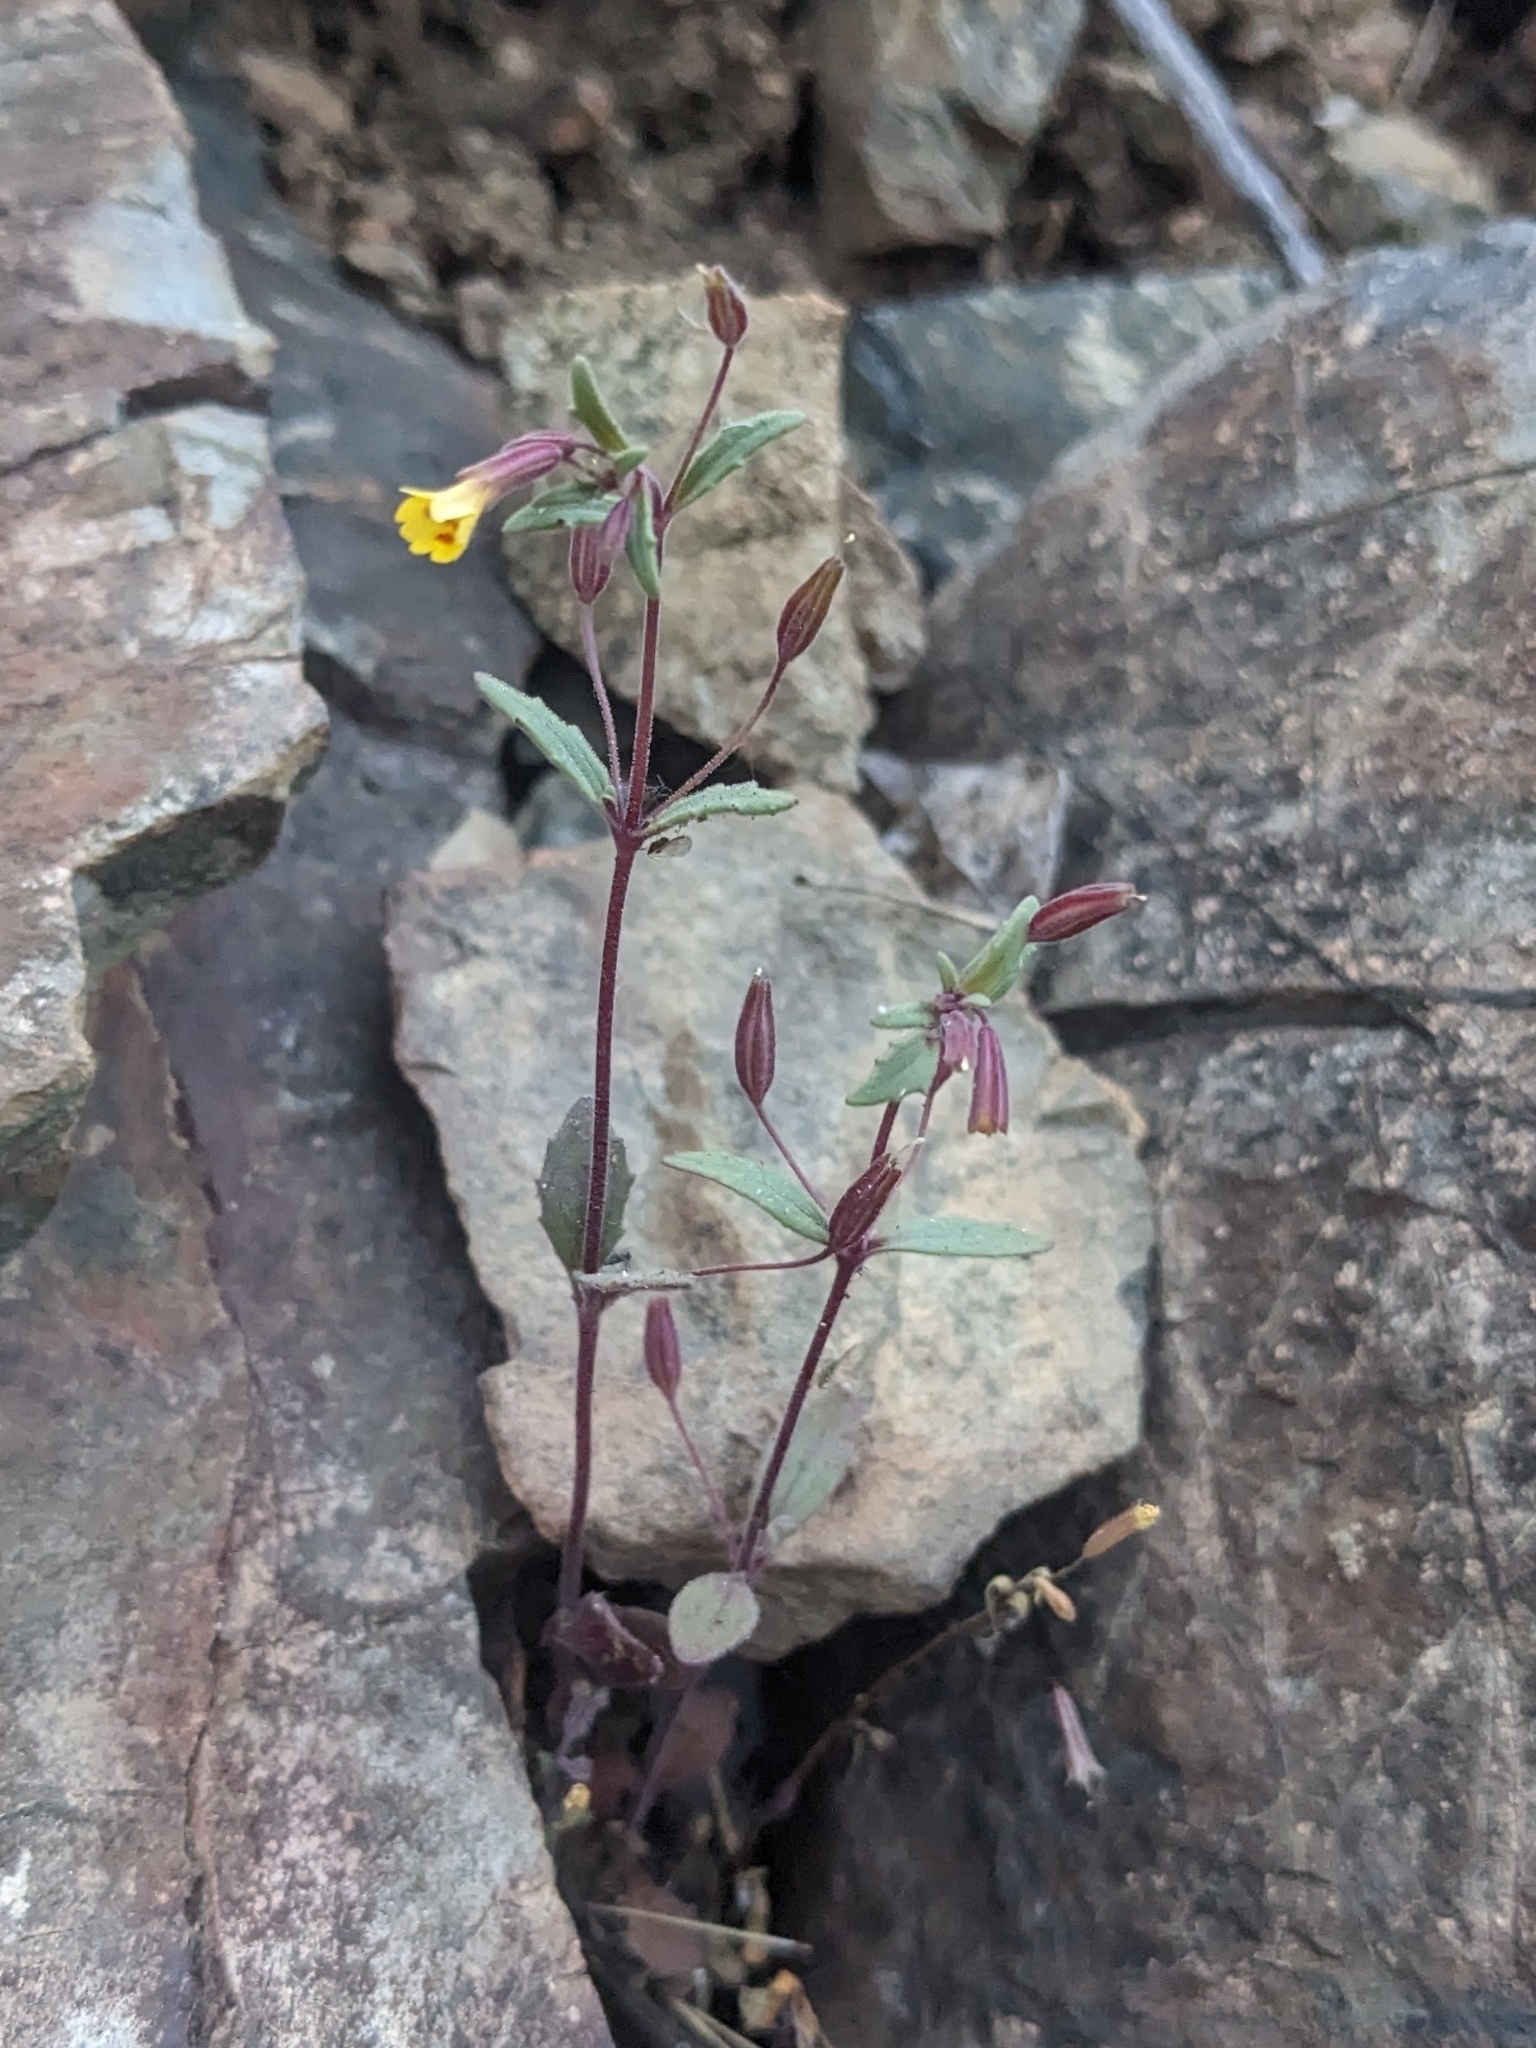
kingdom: Plantae
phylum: Tracheophyta
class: Magnoliopsida
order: Lamiales
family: Phrymaceae
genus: Erythranthe
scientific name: Erythranthe rubella
